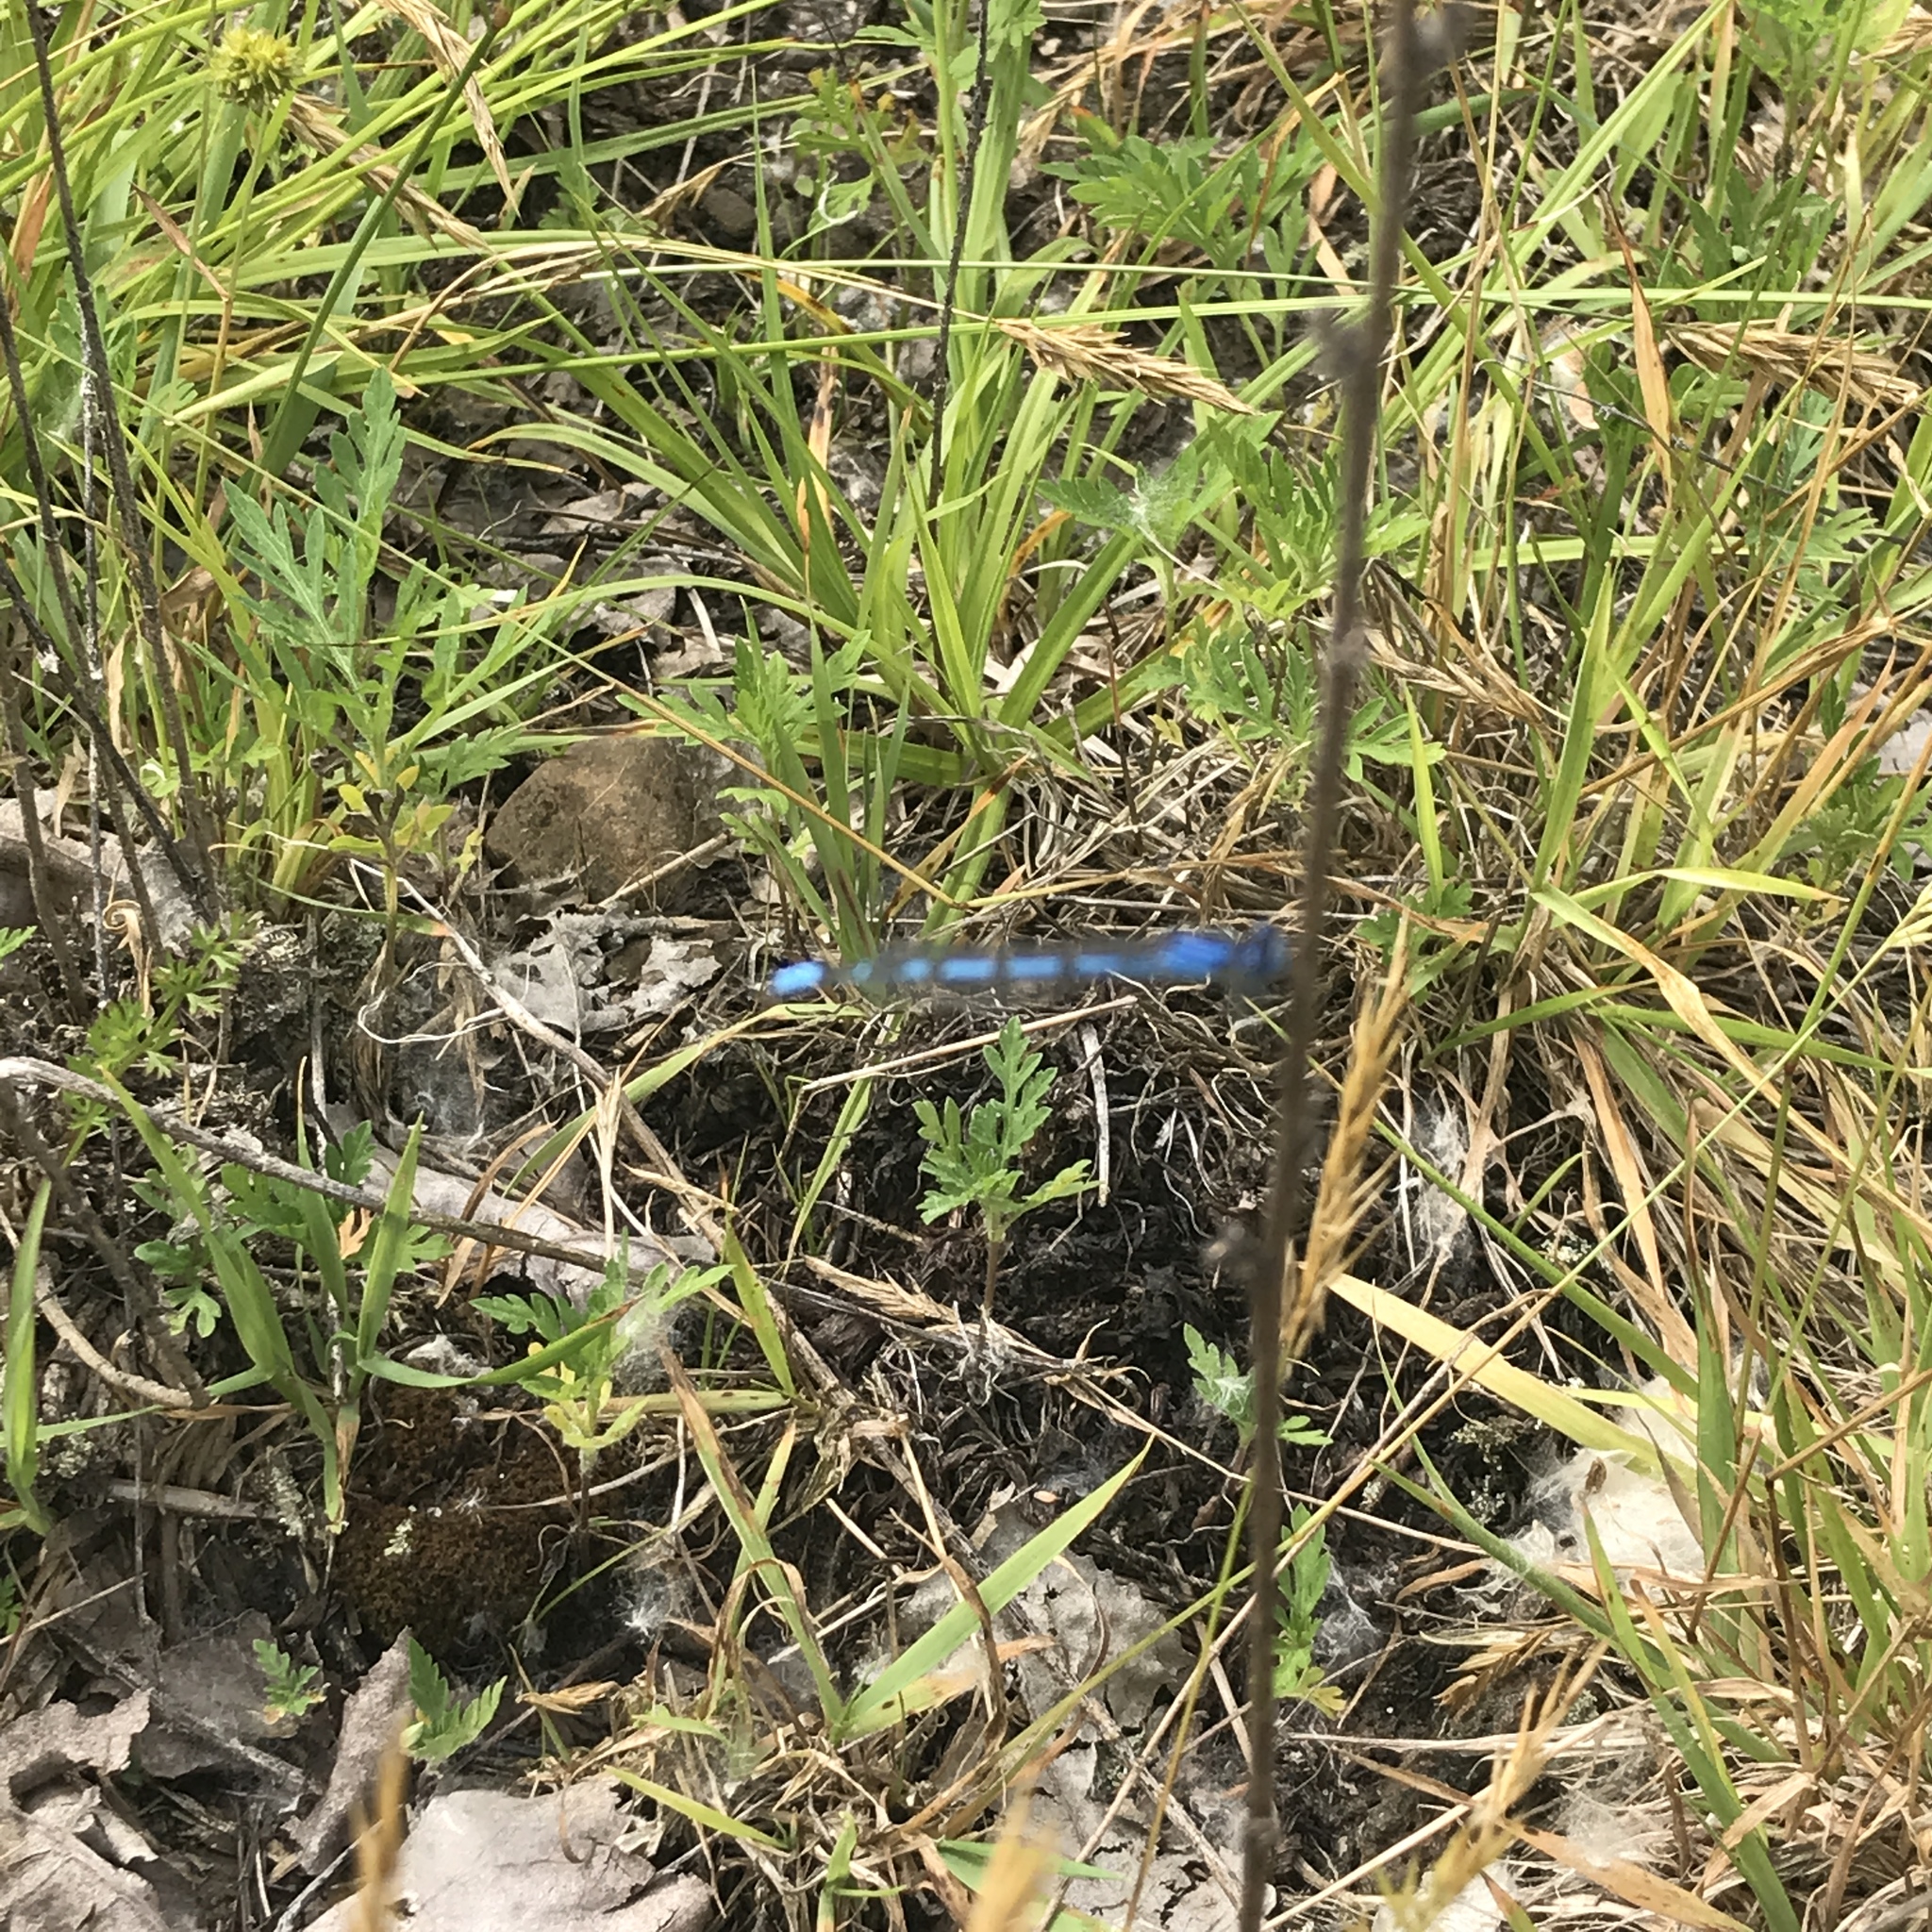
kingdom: Animalia
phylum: Arthropoda
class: Insecta
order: Odonata
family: Coenagrionidae
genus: Enallagma
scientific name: Enallagma
